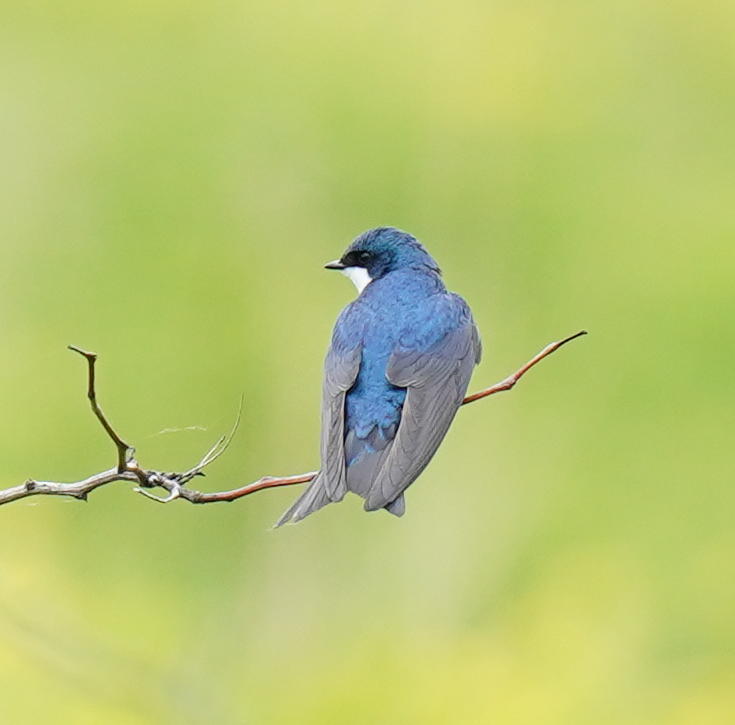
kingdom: Animalia
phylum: Chordata
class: Aves
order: Passeriformes
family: Hirundinidae
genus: Tachycineta
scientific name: Tachycineta bicolor
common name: Tree swallow
